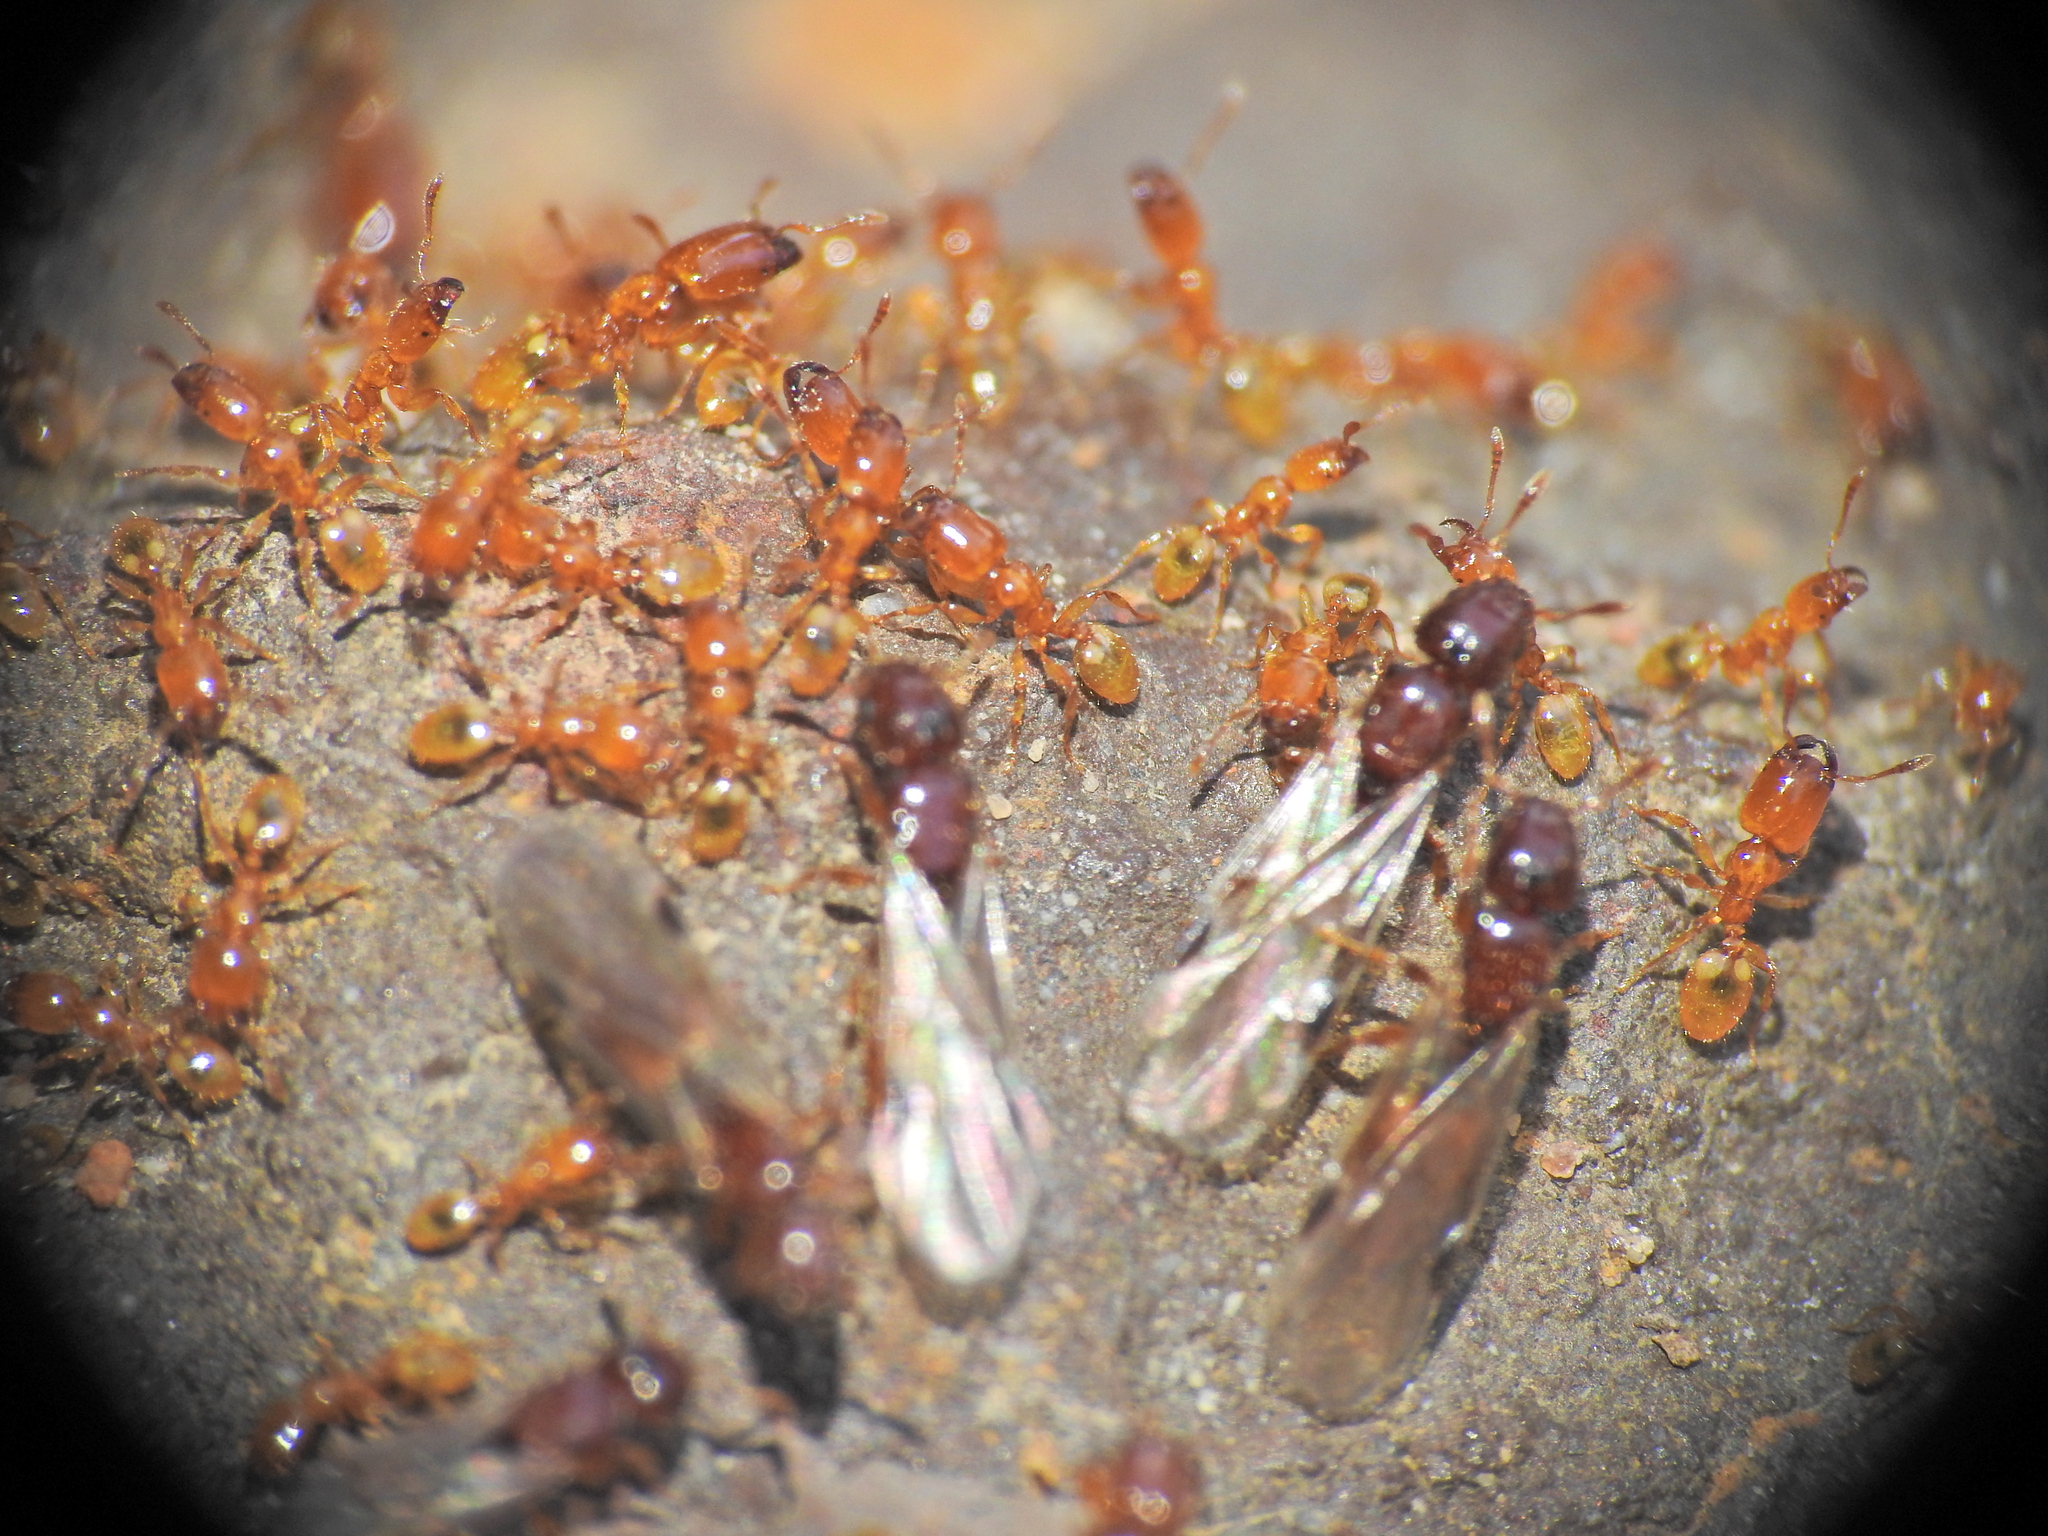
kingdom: Animalia
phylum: Arthropoda
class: Insecta
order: Hymenoptera
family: Formicidae
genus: Pheidole
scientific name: Pheidole
